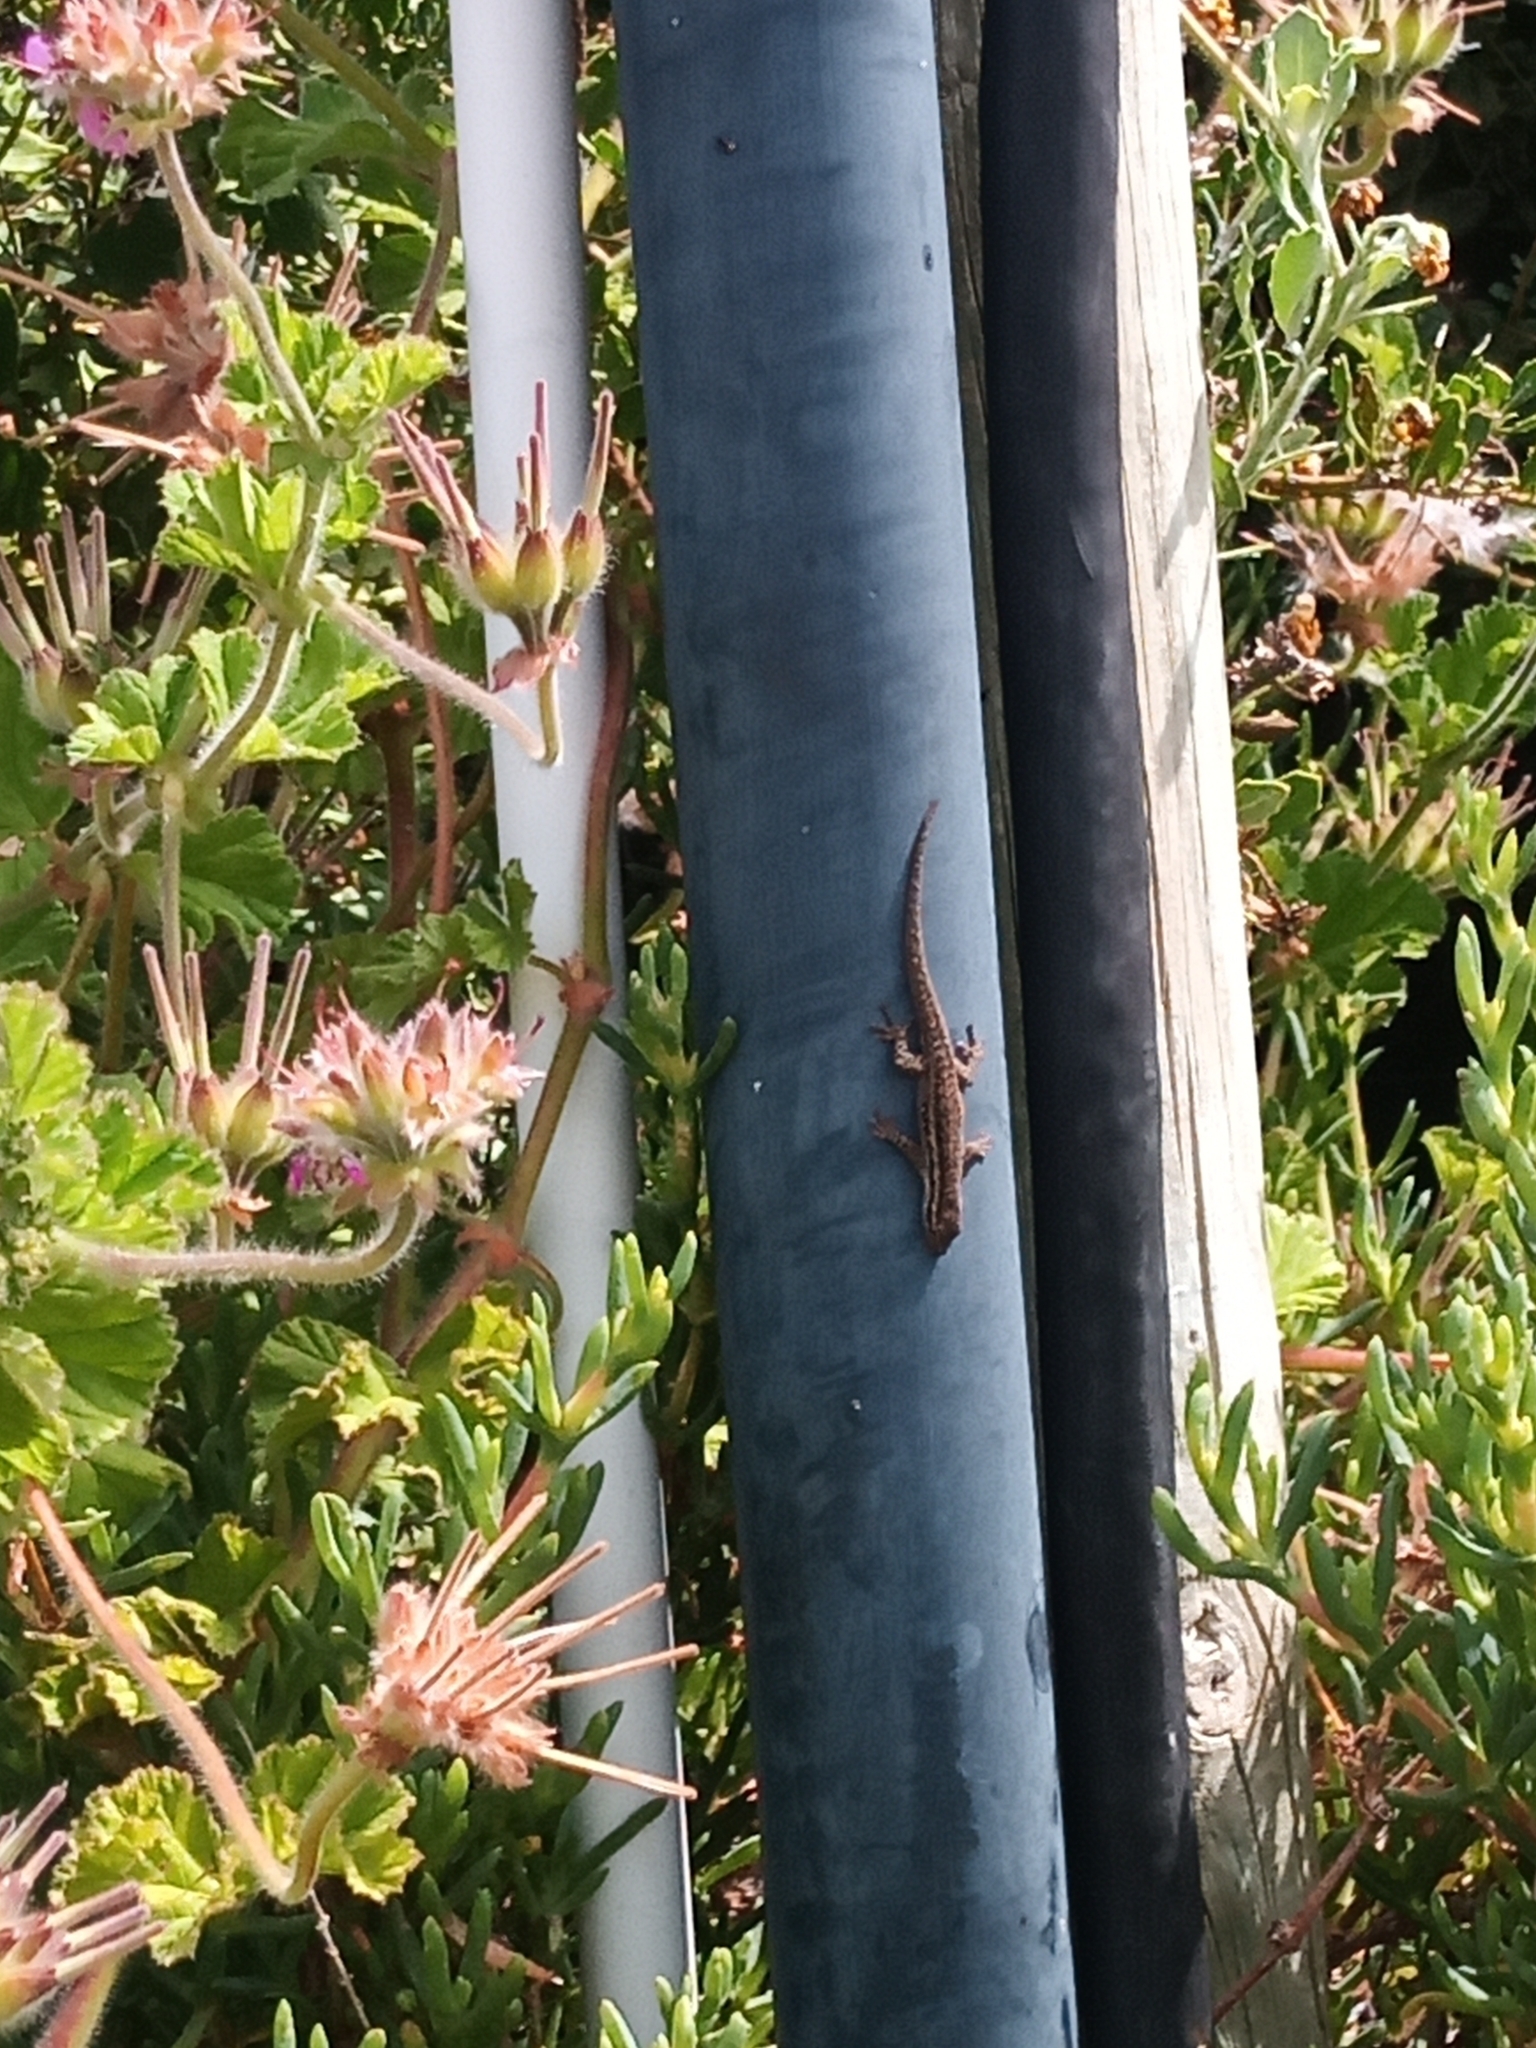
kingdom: Animalia
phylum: Chordata
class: Squamata
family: Gekkonidae
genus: Lygodactylus
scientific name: Lygodactylus capensis
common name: Cape dwarf gecko
